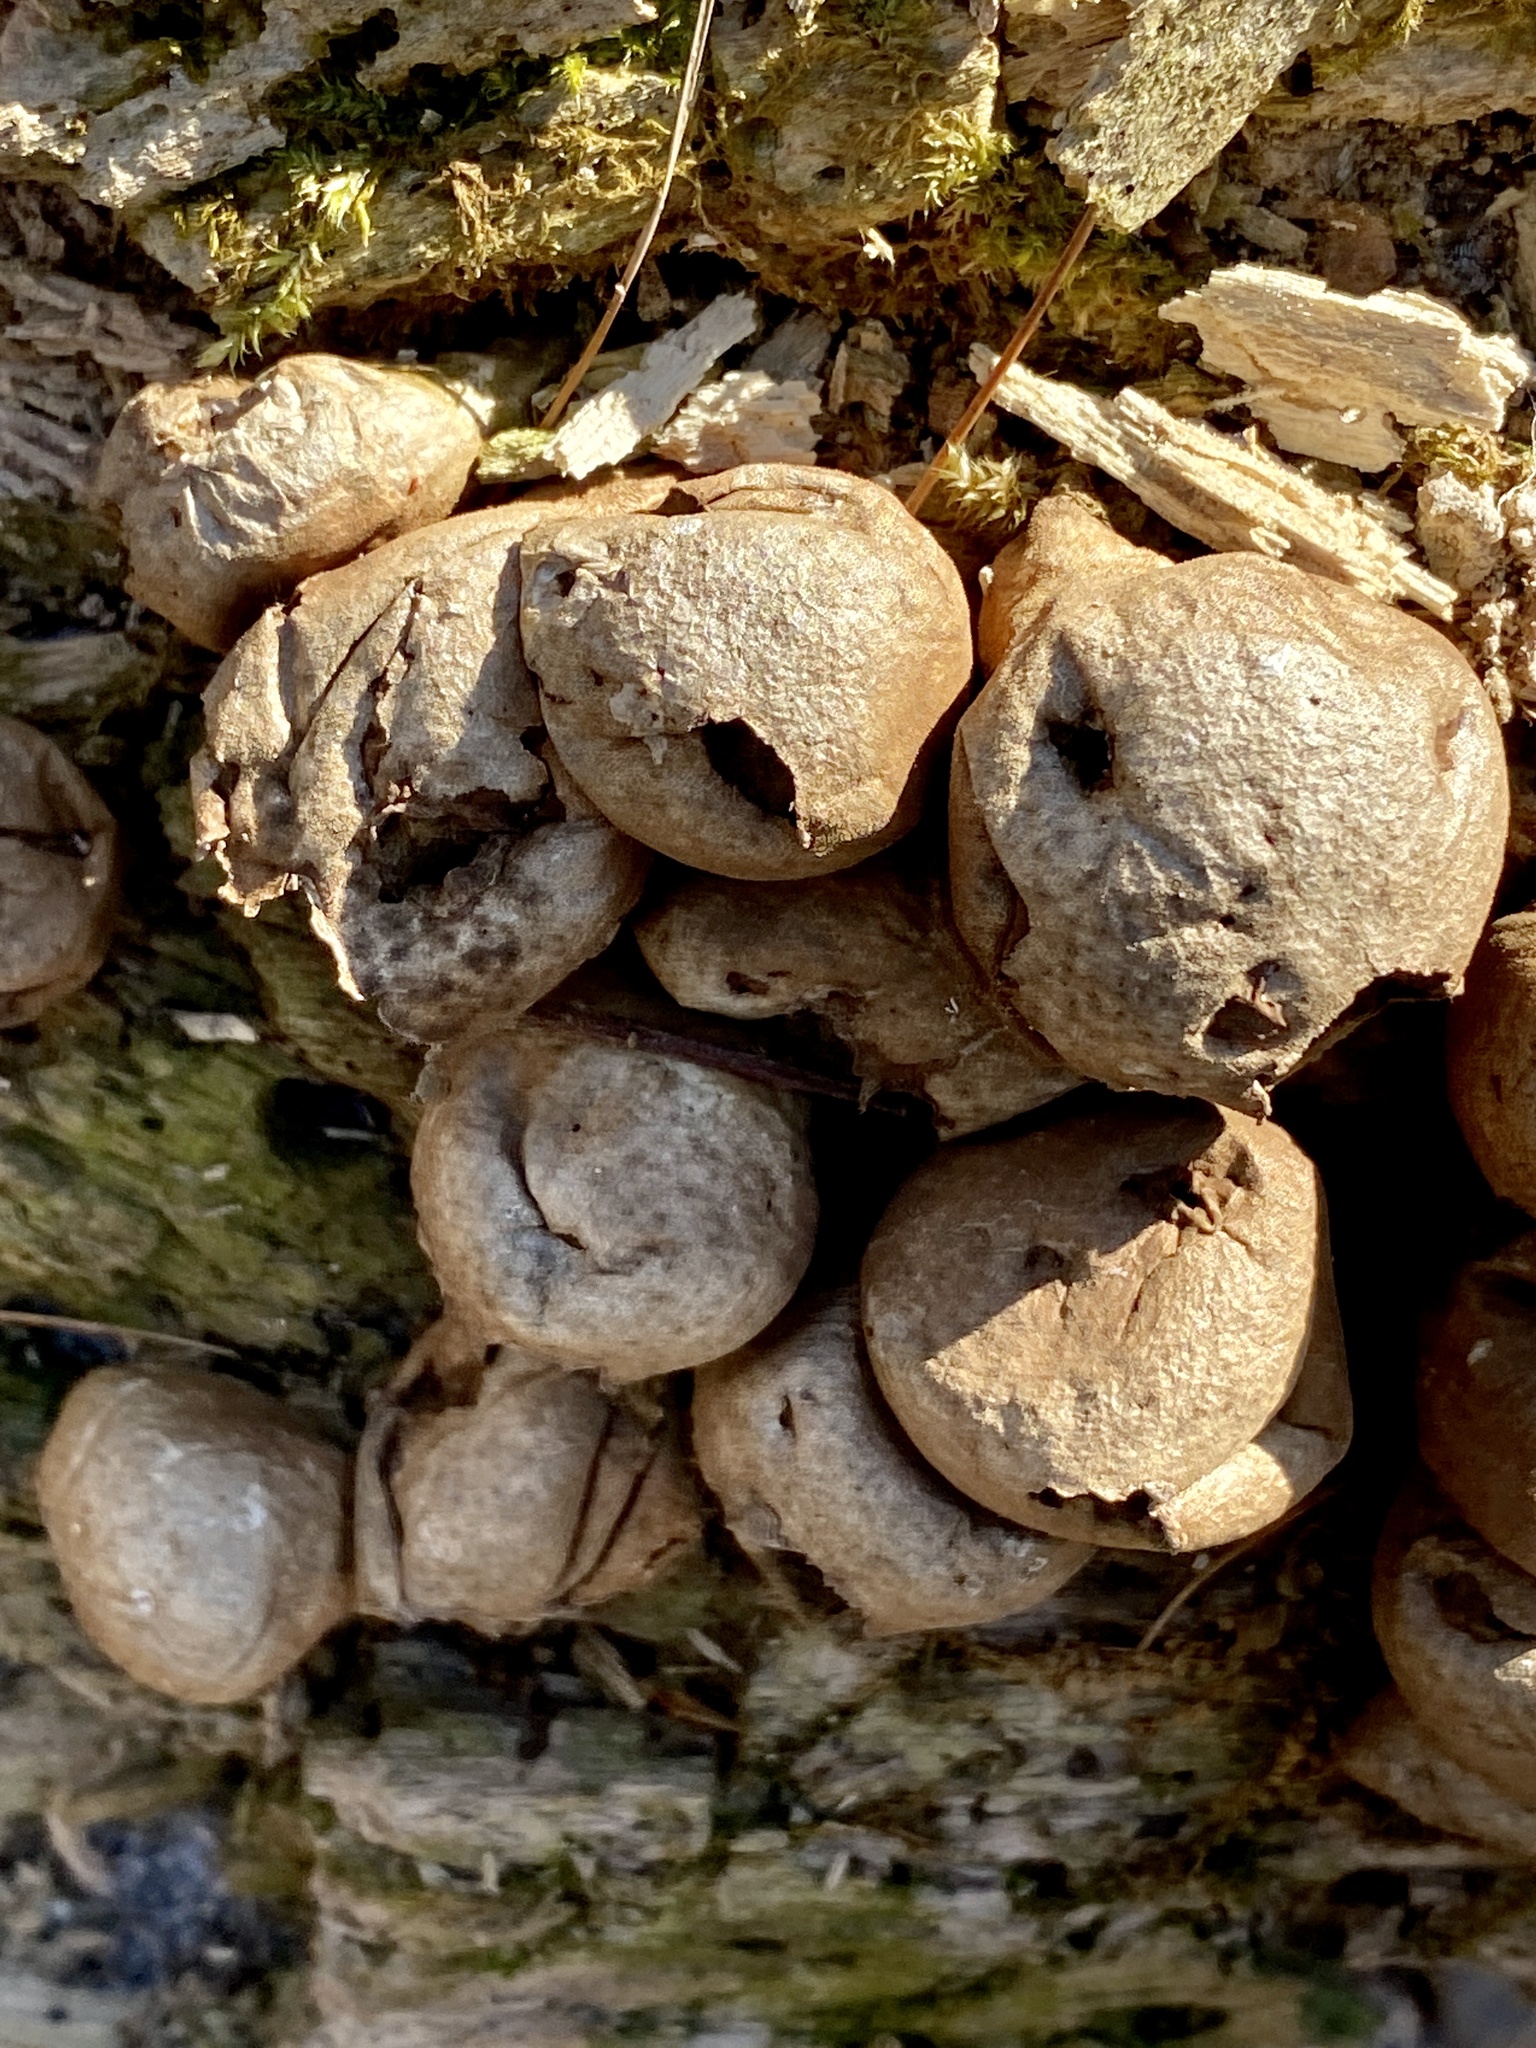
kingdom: Fungi
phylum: Basidiomycota
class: Agaricomycetes
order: Agaricales
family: Lycoperdaceae
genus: Apioperdon
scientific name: Apioperdon pyriforme
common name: Pear-shaped puffball
